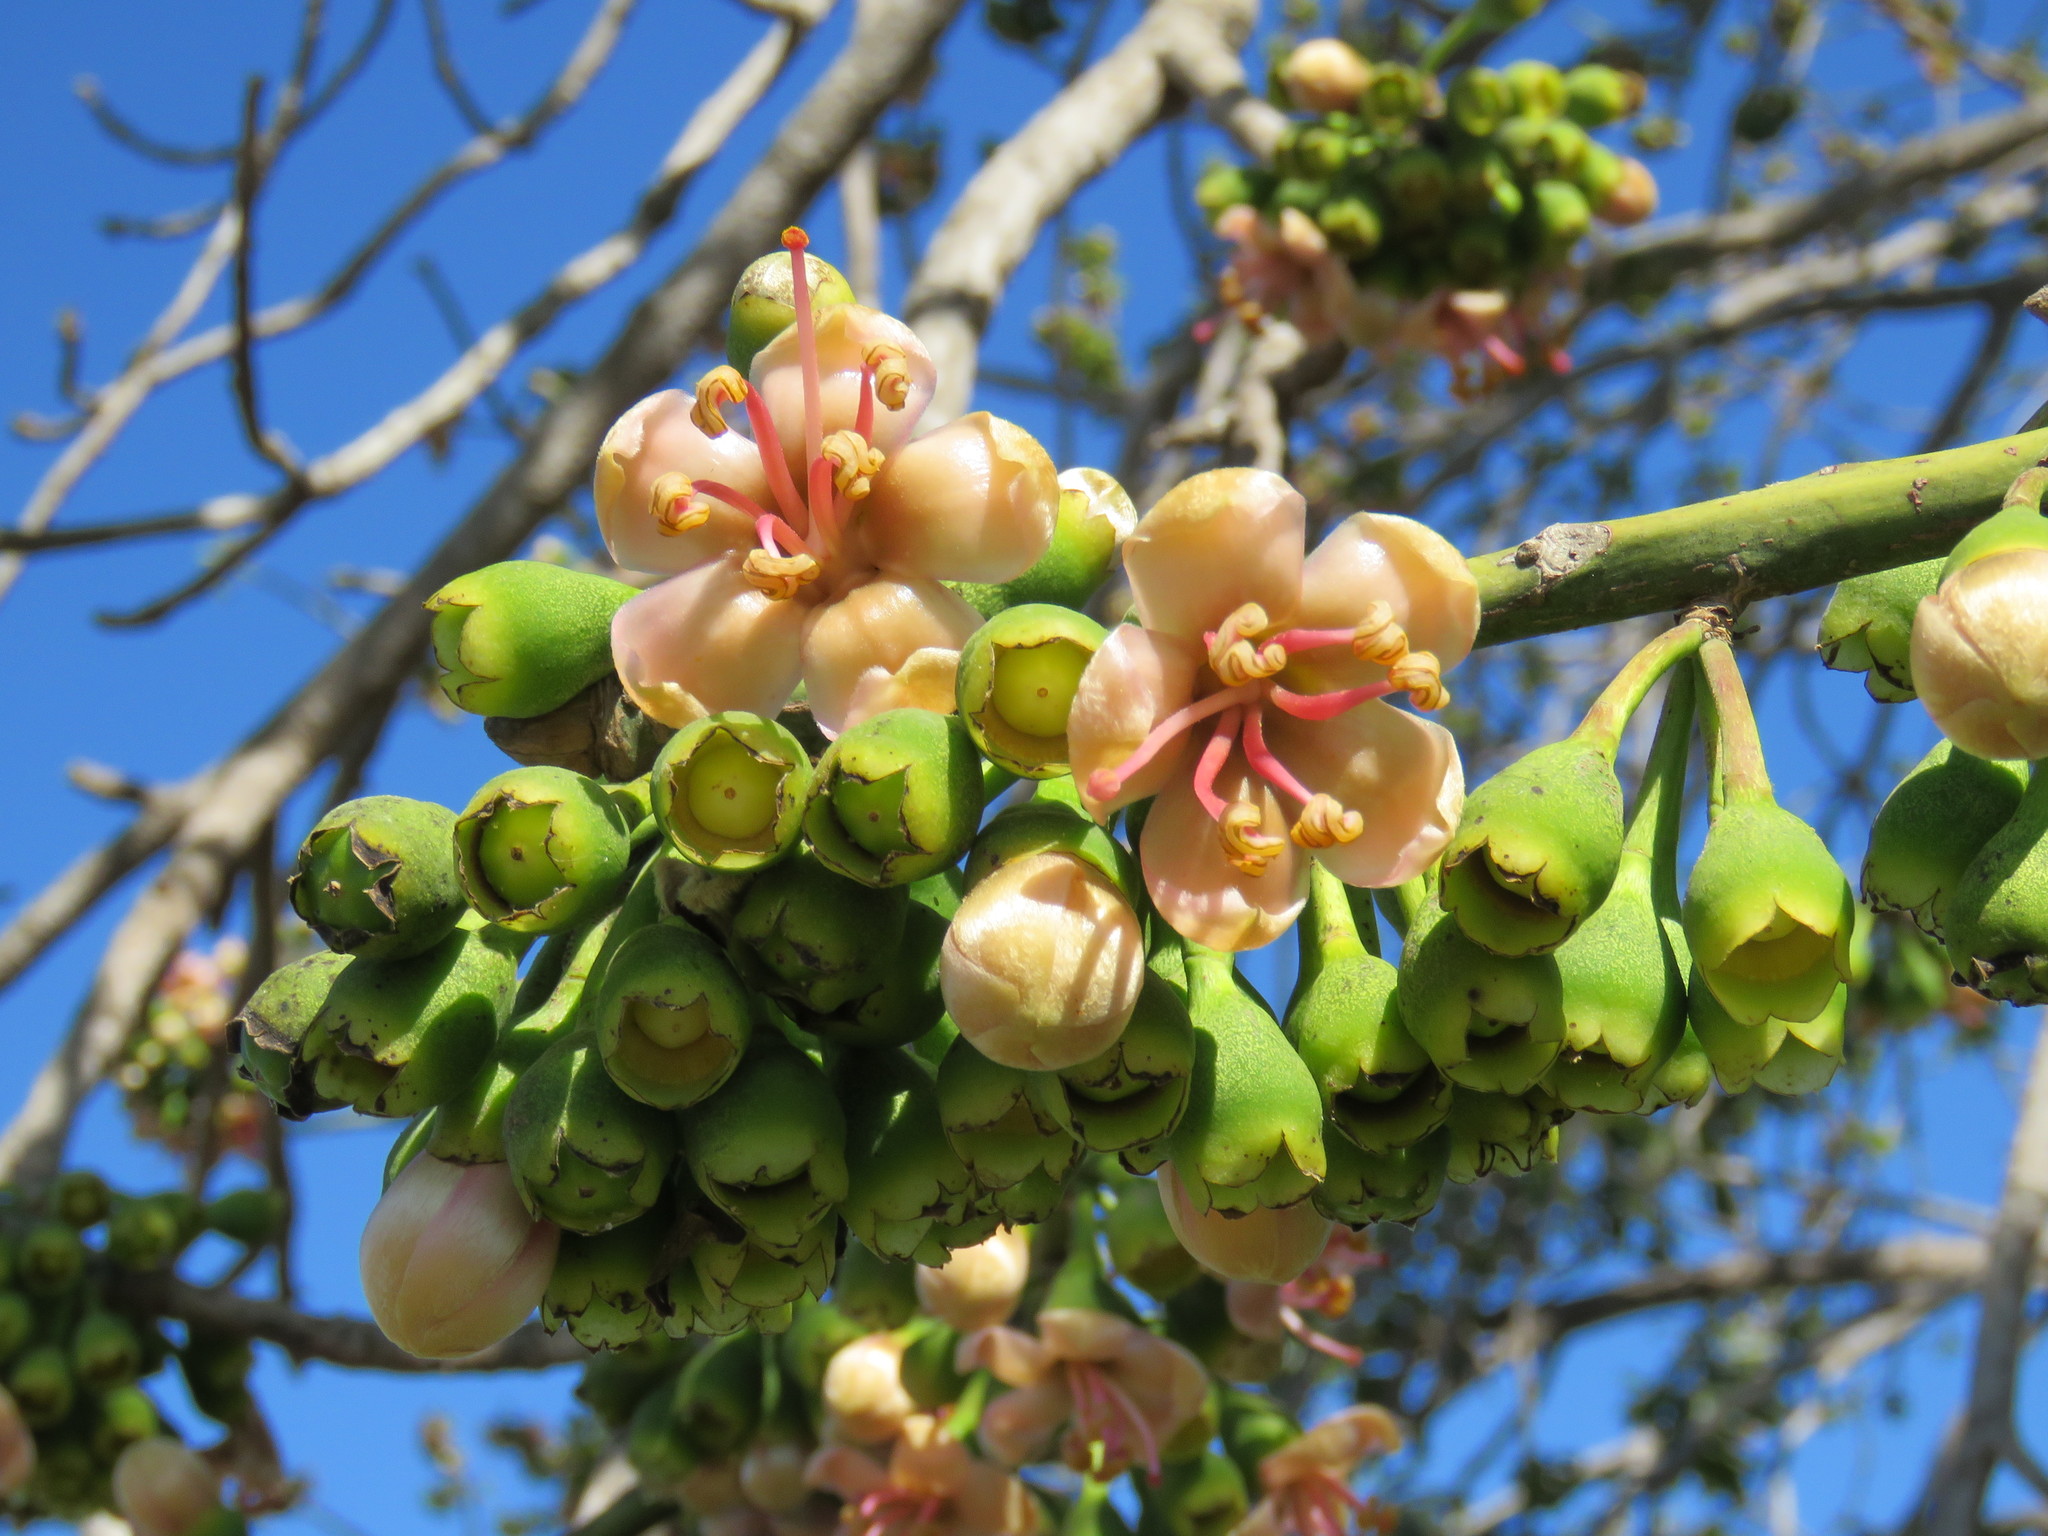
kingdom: Plantae
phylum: Tracheophyta
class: Magnoliopsida
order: Malvales
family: Malvaceae
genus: Ceiba
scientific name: Ceiba pentandra
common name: Kapok
